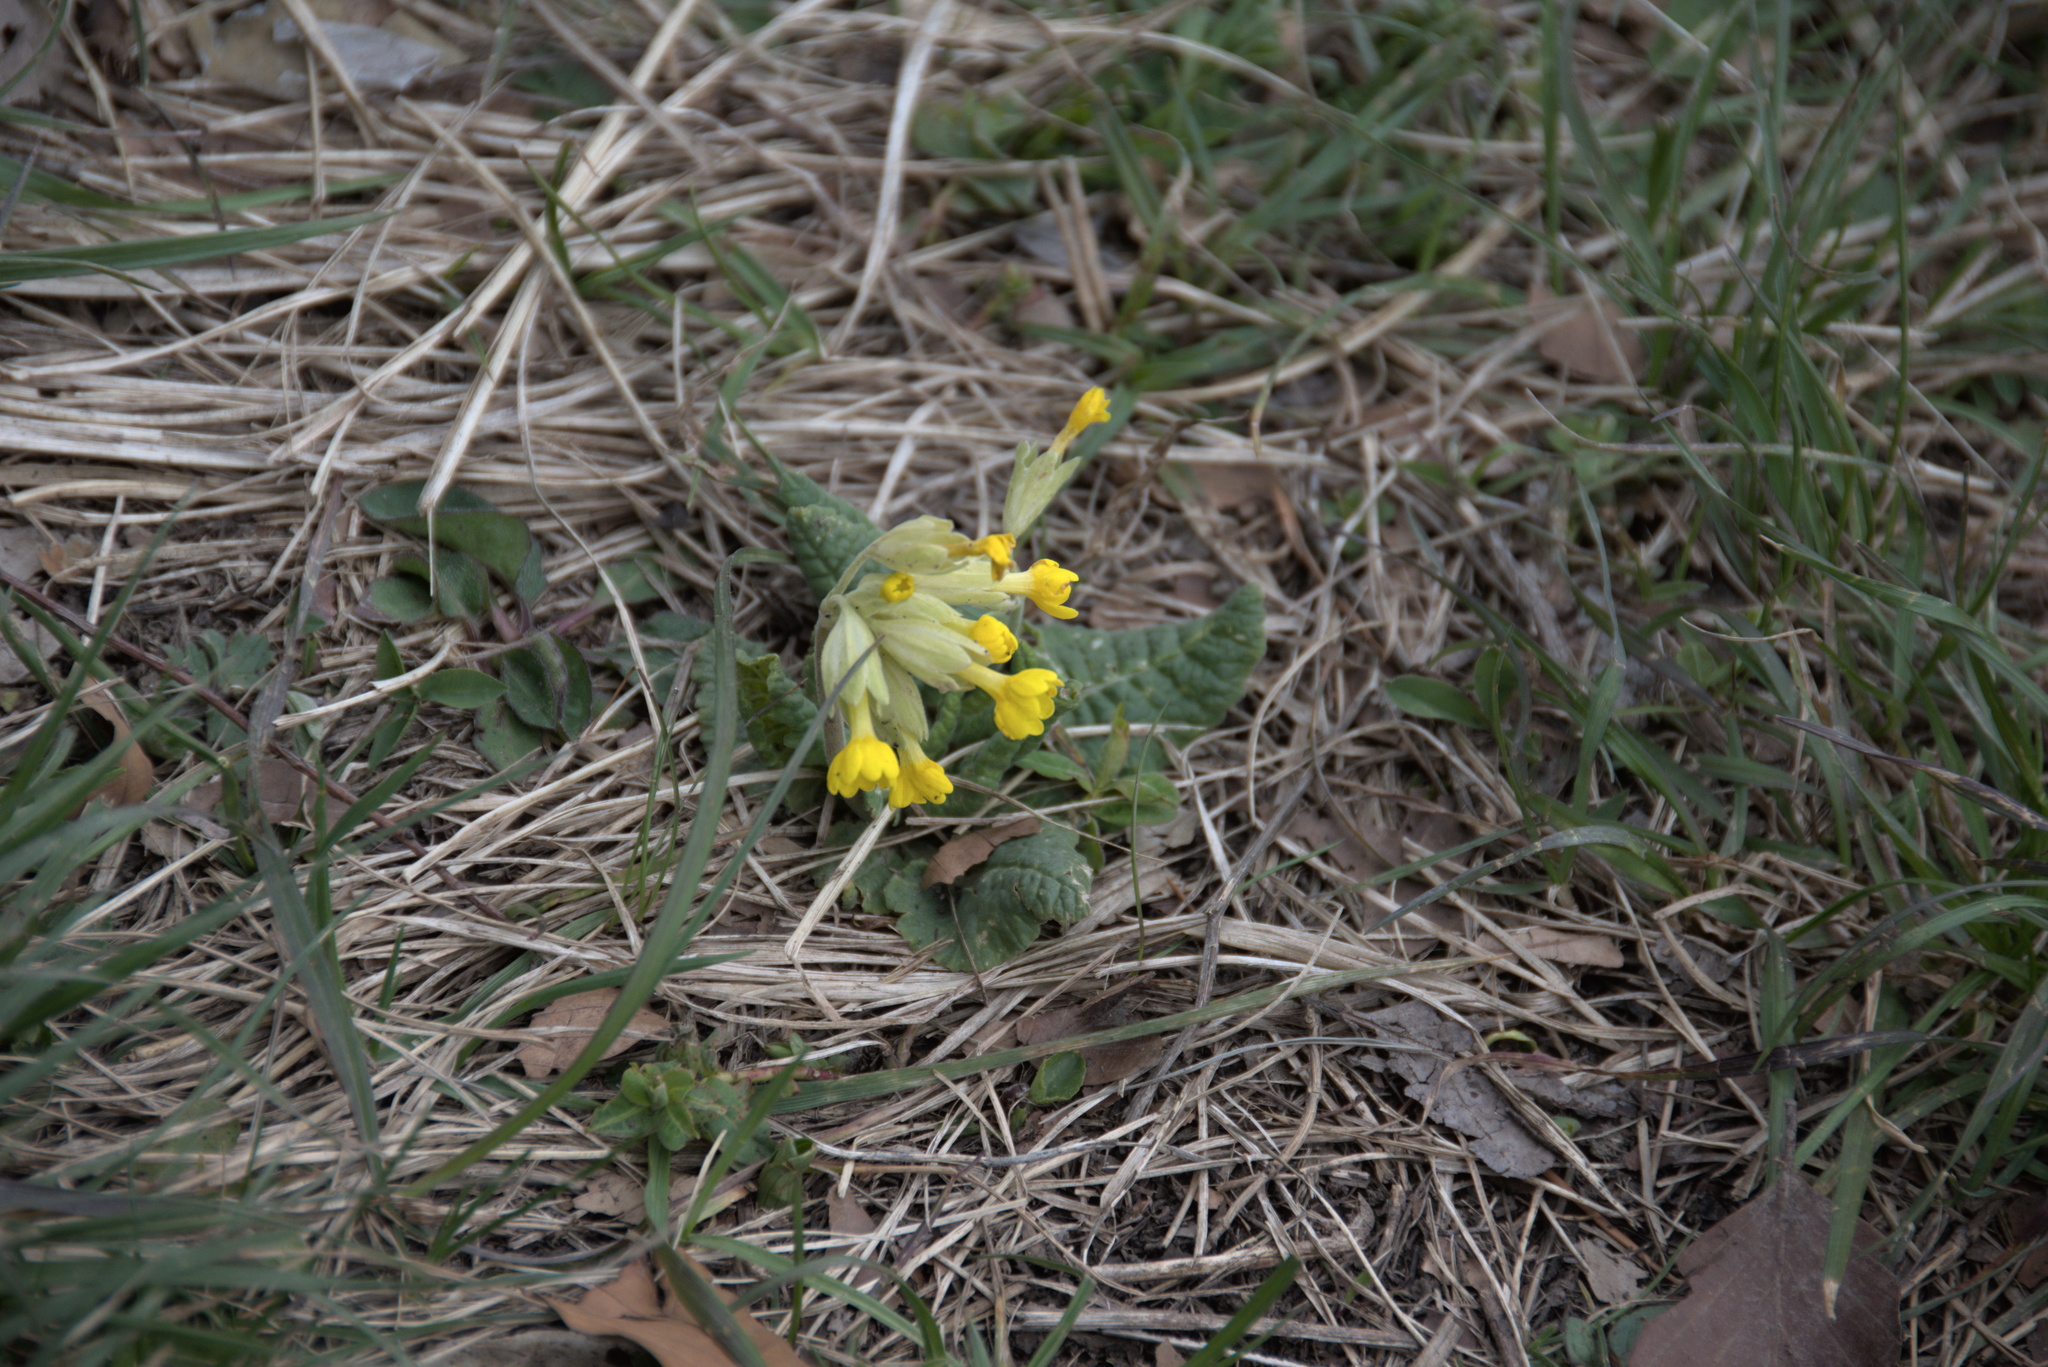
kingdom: Plantae
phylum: Tracheophyta
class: Magnoliopsida
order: Ericales
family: Primulaceae
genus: Primula
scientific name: Primula veris
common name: Cowslip
